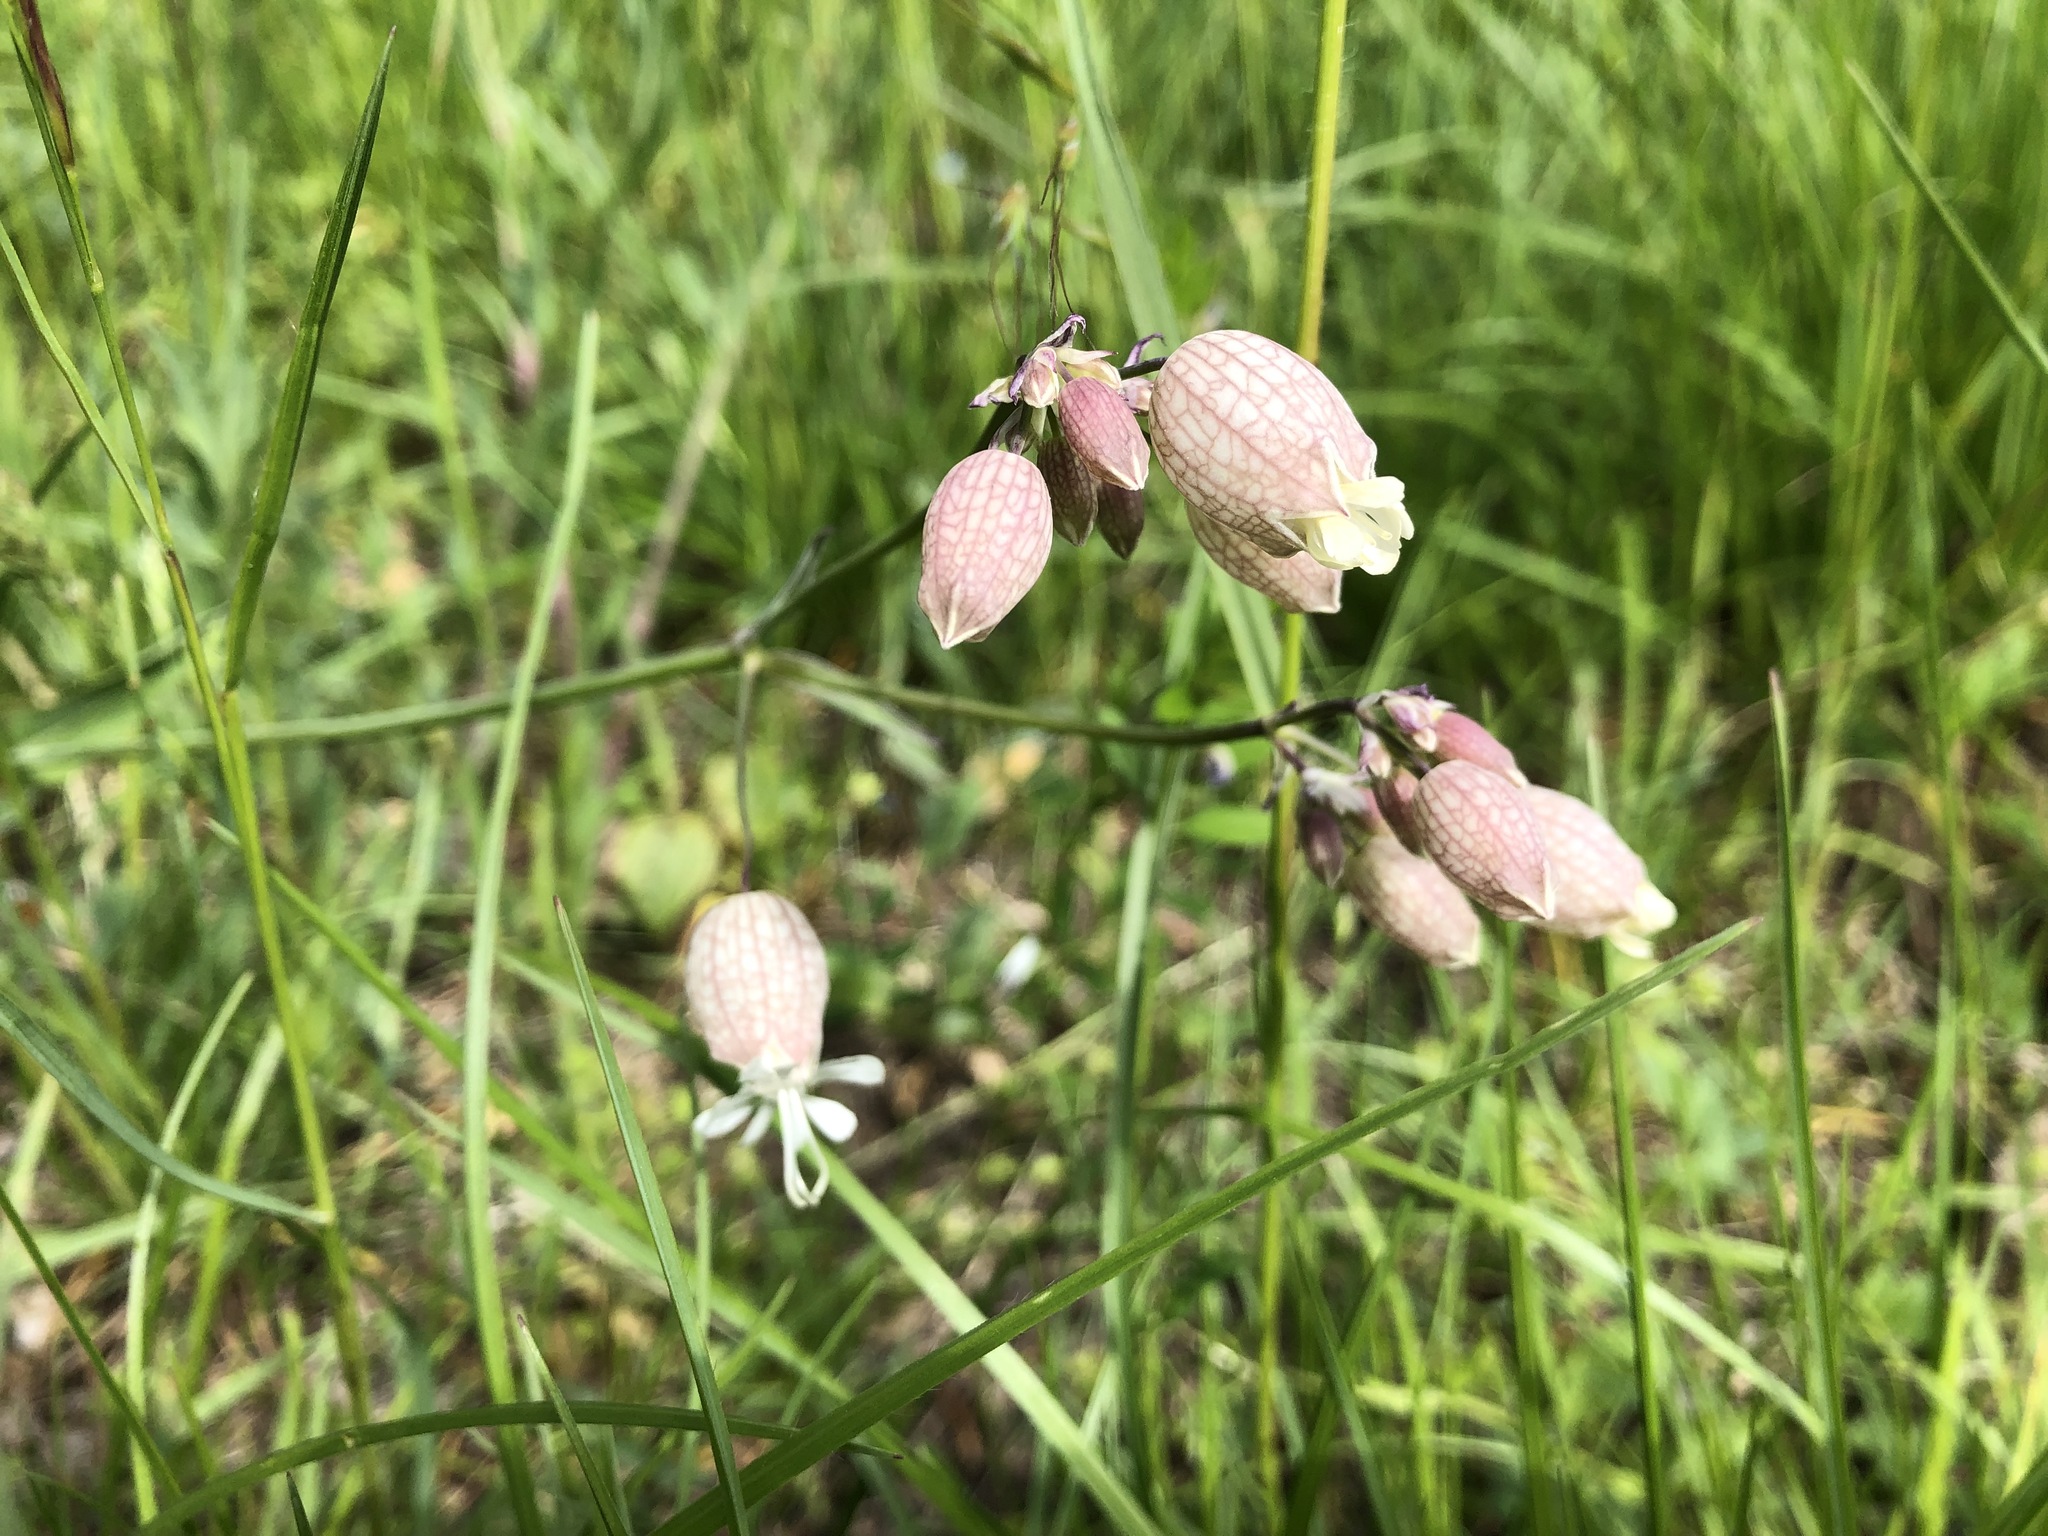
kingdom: Plantae
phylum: Tracheophyta
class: Magnoliopsida
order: Caryophyllales
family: Caryophyllaceae
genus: Silene
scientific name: Silene vulgaris
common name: Bladder campion
